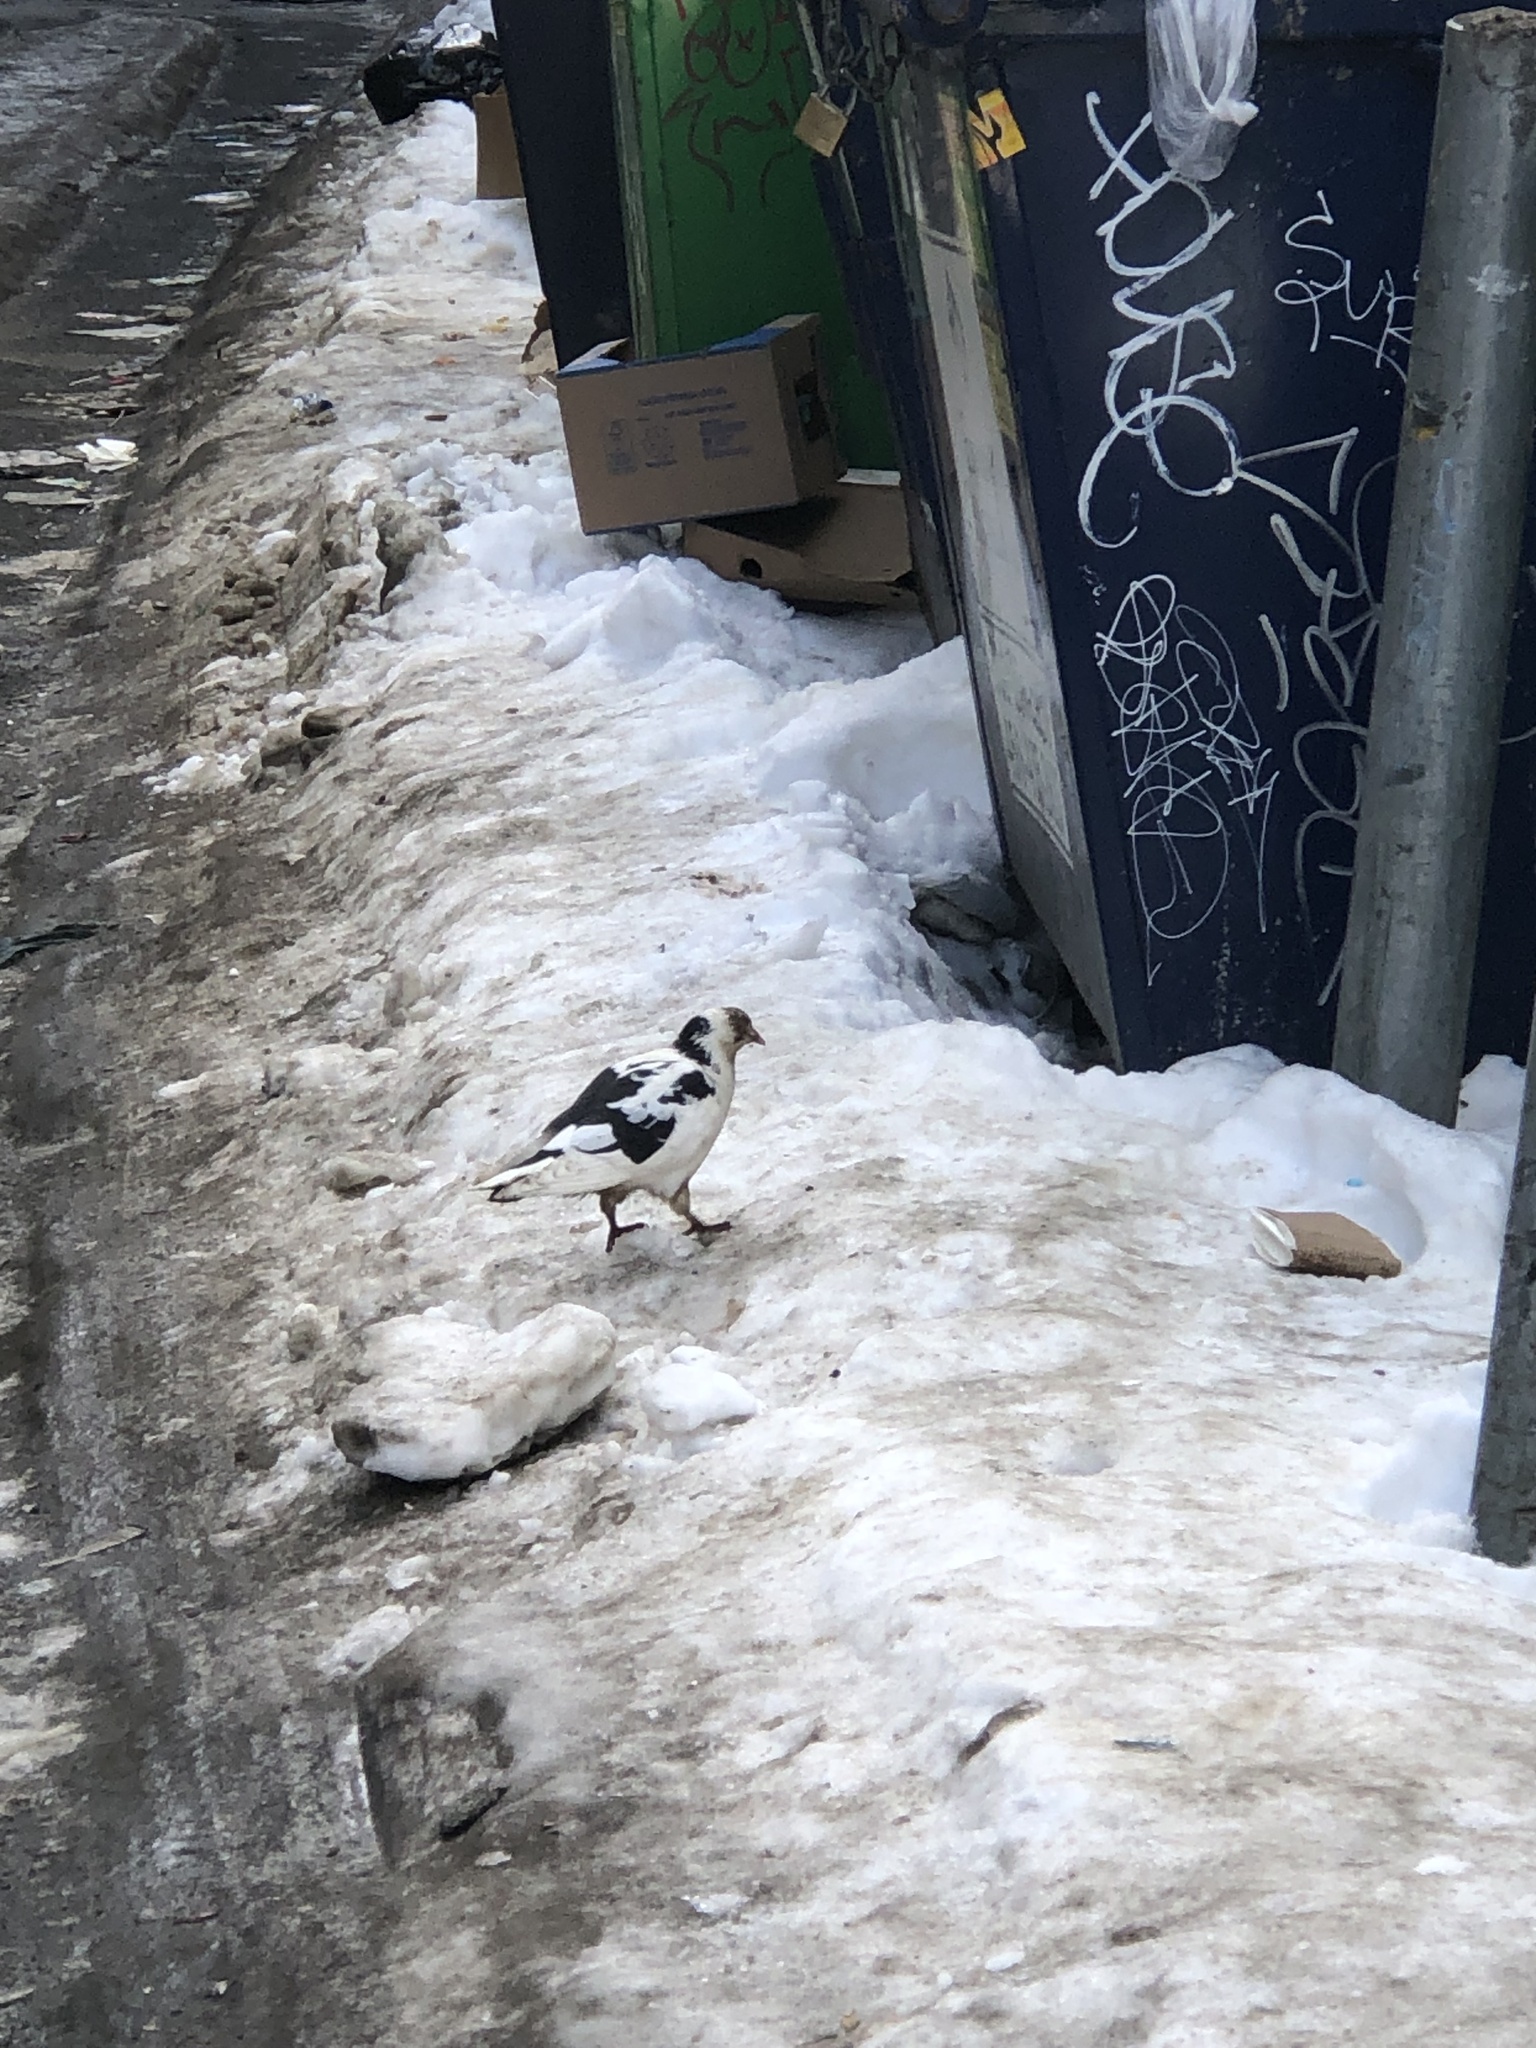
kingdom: Animalia
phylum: Chordata
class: Aves
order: Columbiformes
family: Columbidae
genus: Columba
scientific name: Columba livia
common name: Rock pigeon
